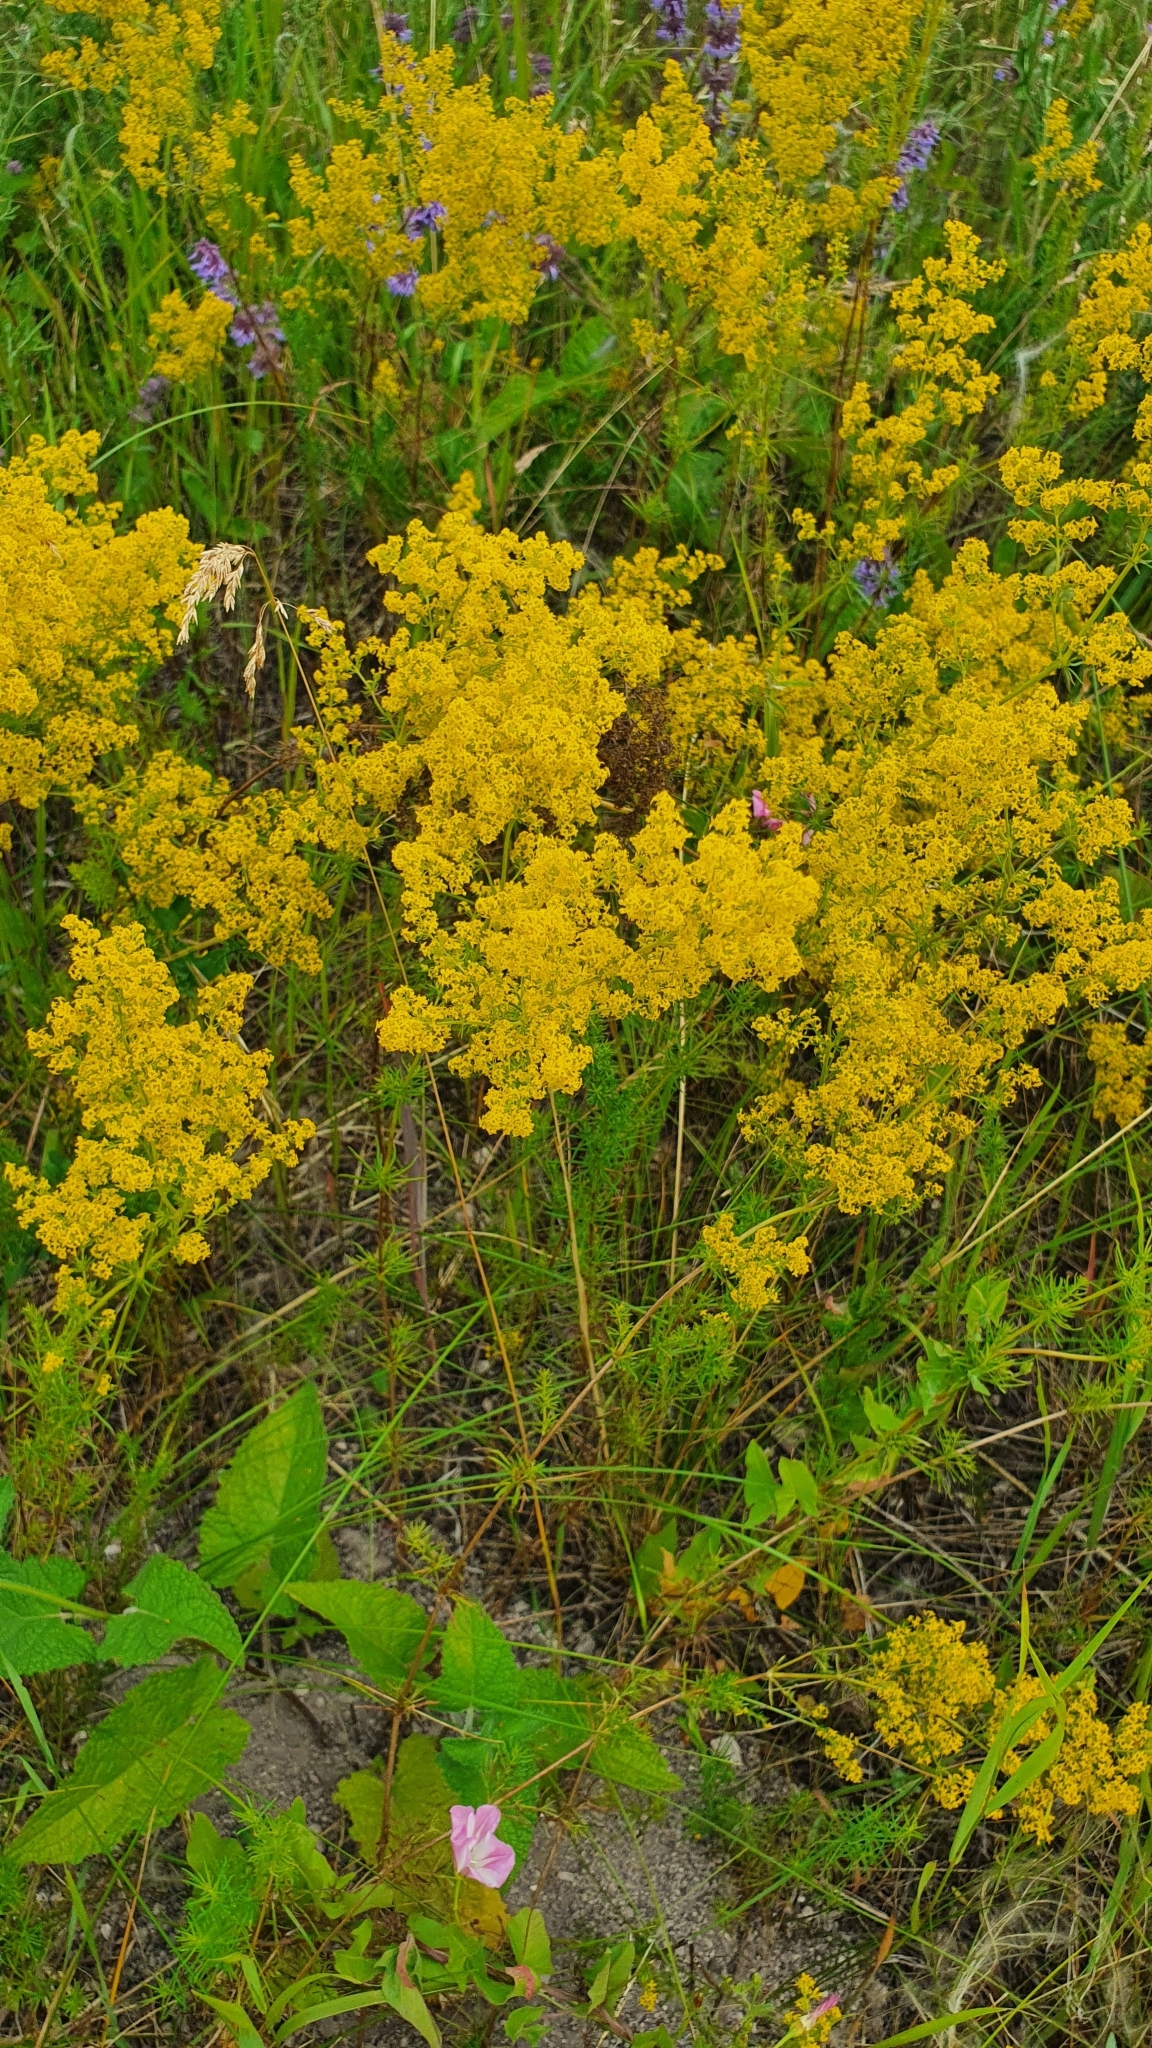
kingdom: Plantae
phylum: Tracheophyta
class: Magnoliopsida
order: Gentianales
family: Rubiaceae
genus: Galium
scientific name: Galium verum
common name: Lady's bedstraw
